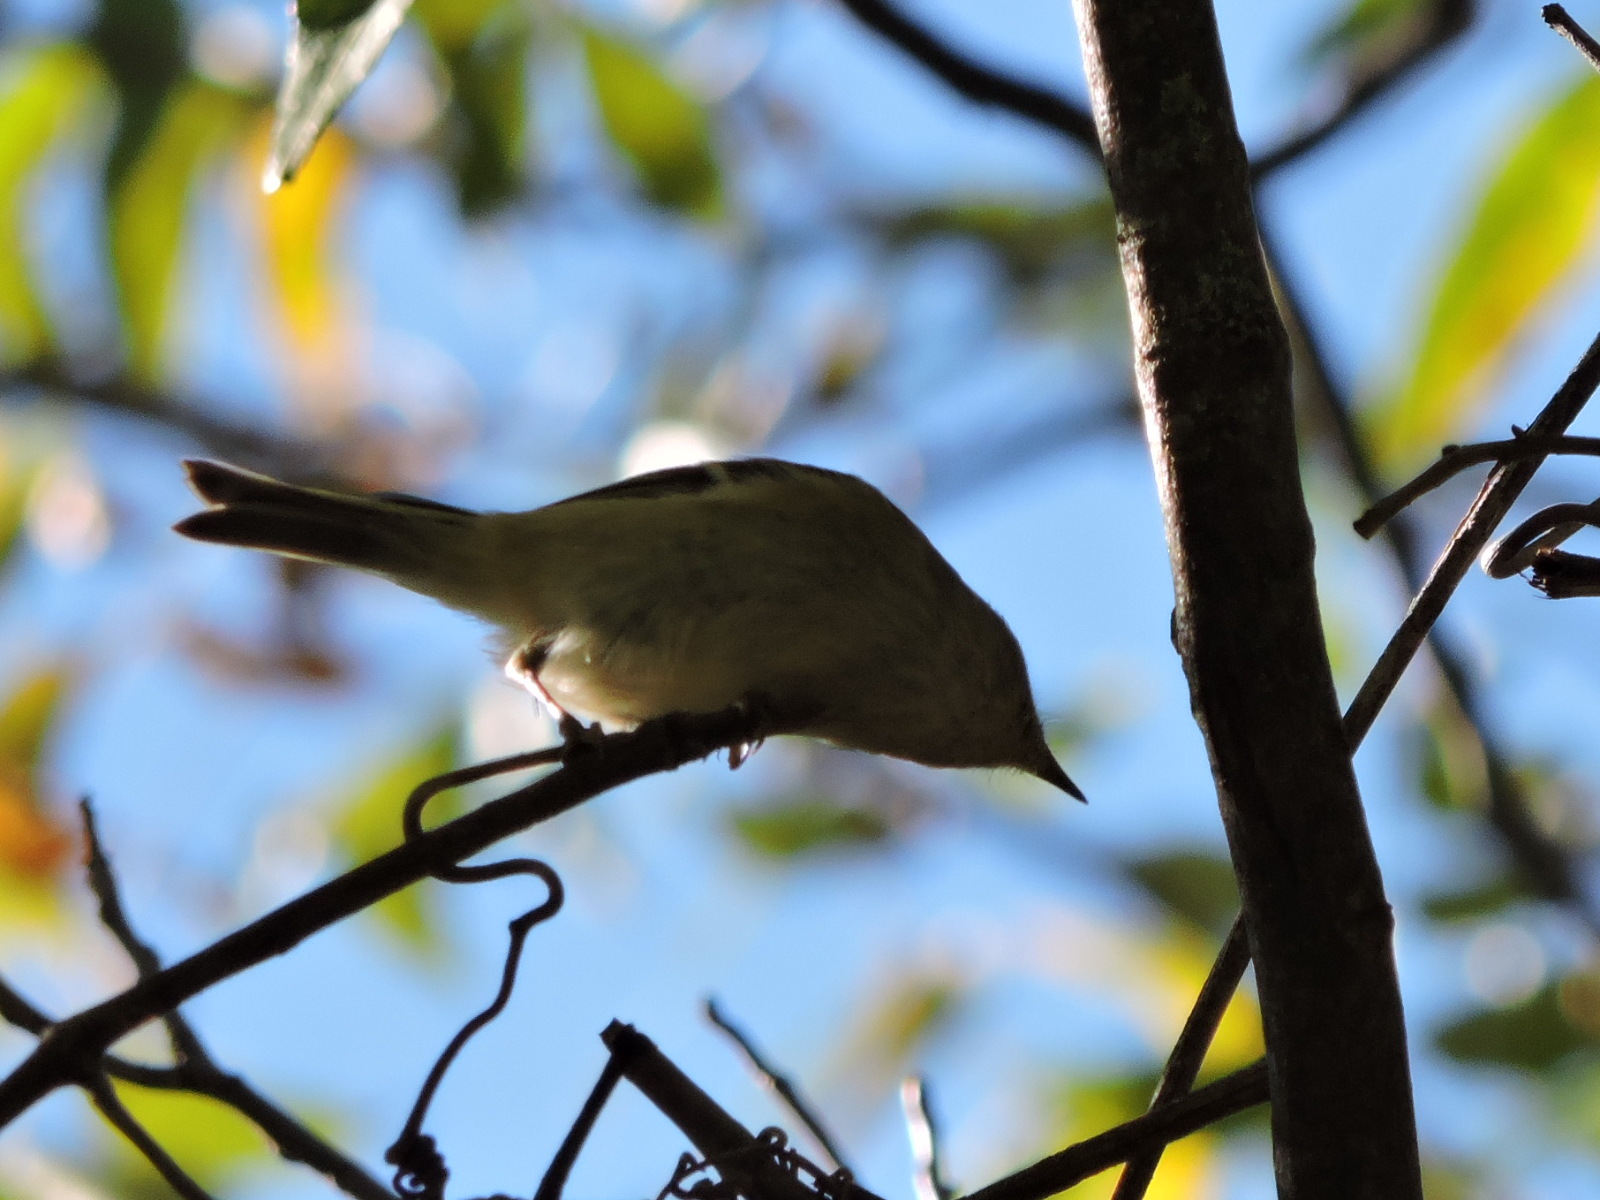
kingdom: Animalia
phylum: Chordata
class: Aves
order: Passeriformes
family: Regulidae
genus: Regulus
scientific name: Regulus calendula
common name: Ruby-crowned kinglet
